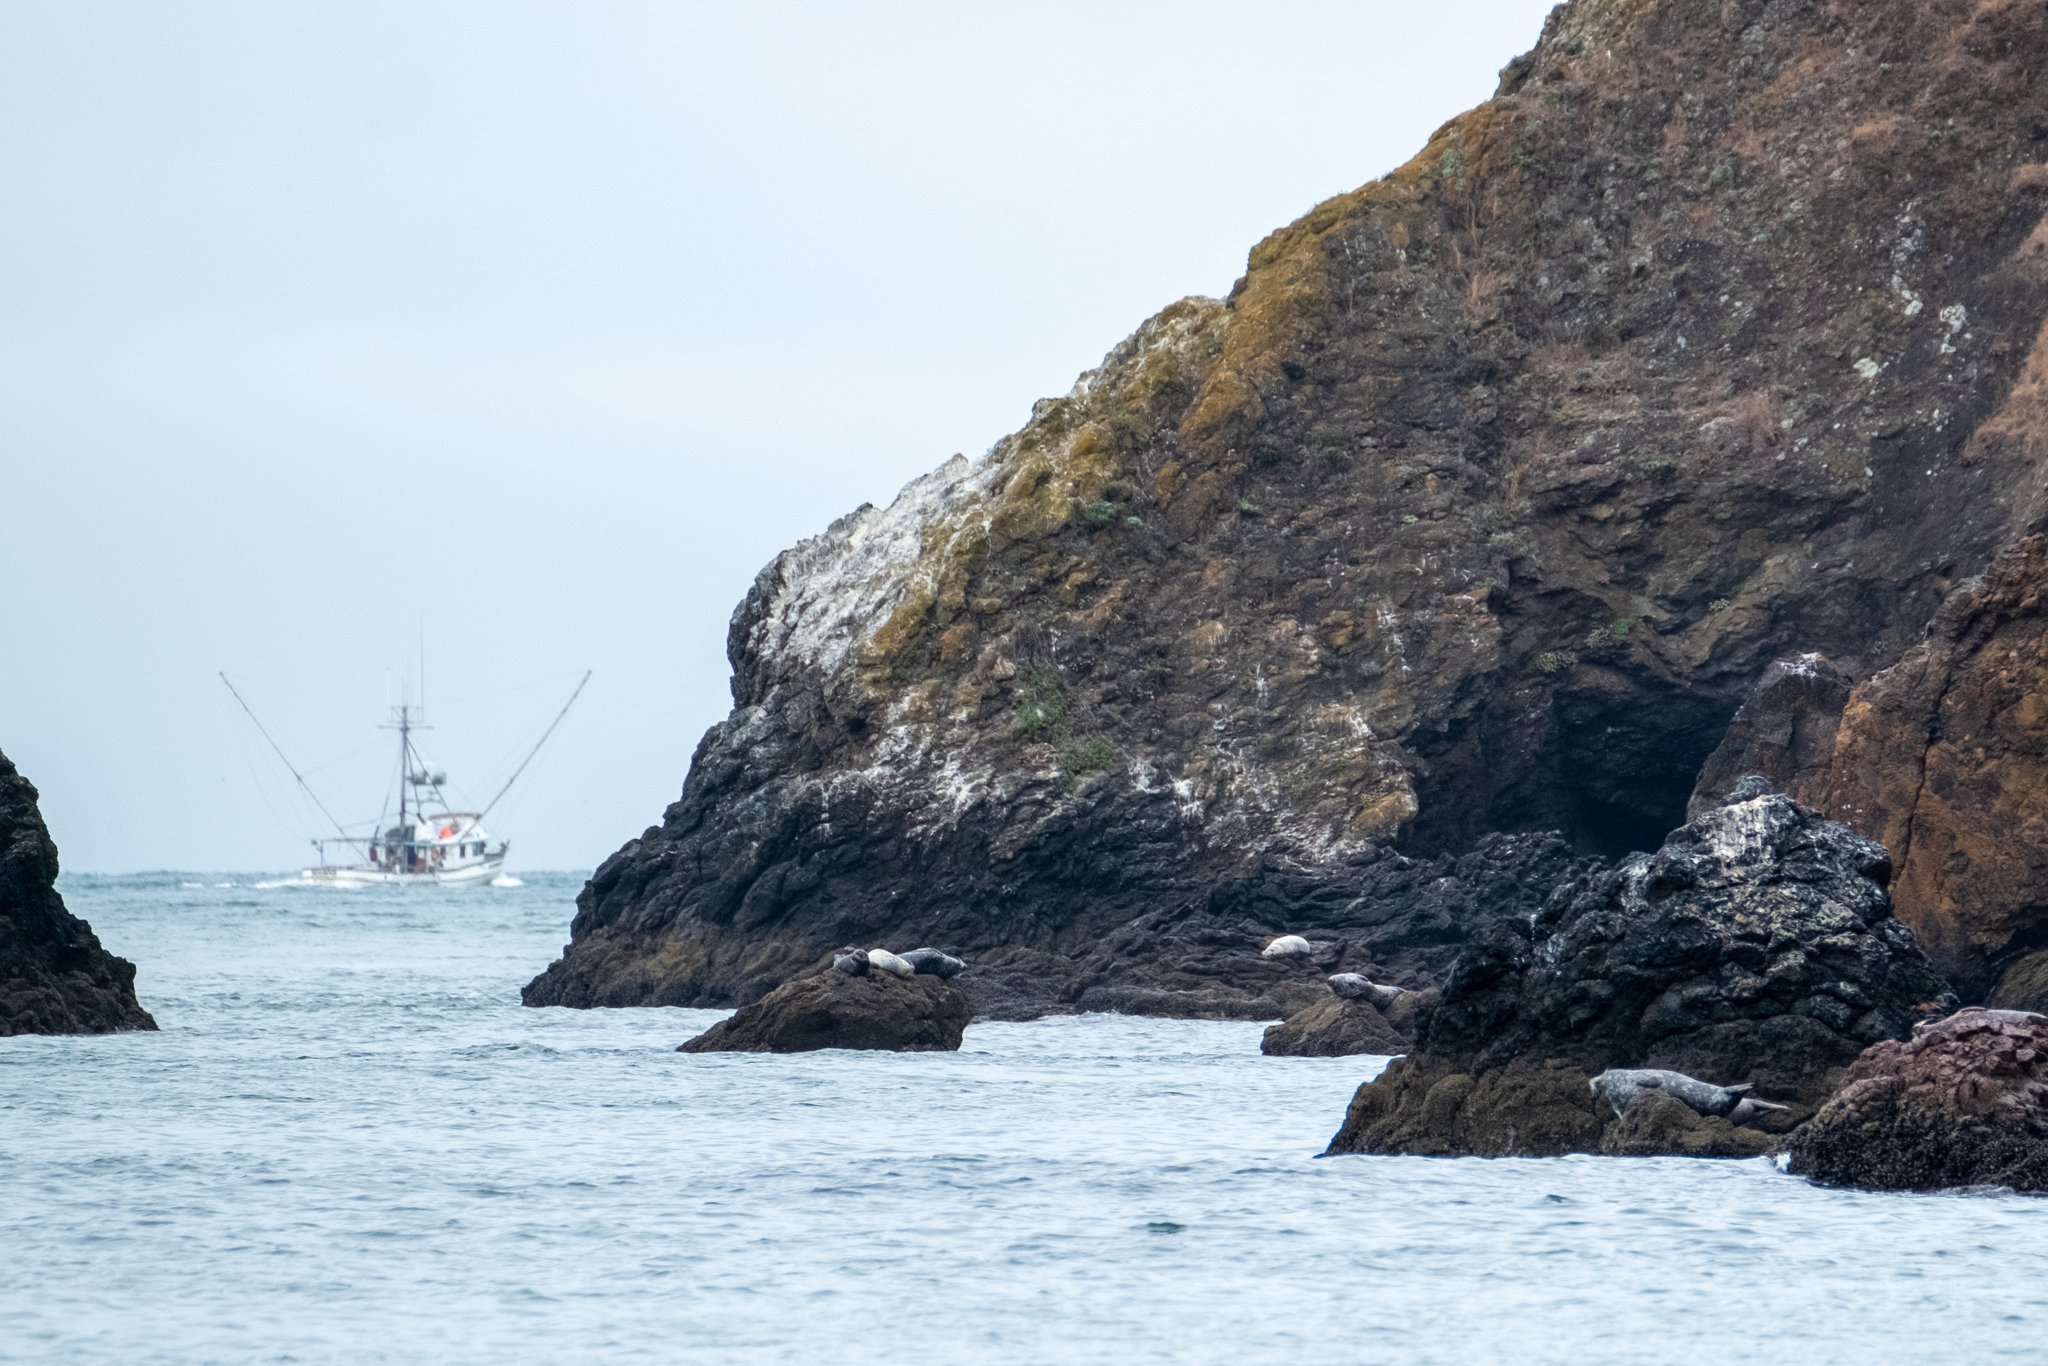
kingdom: Animalia
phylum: Chordata
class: Mammalia
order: Carnivora
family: Phocidae
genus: Phoca
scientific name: Phoca vitulina
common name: Harbor seal
